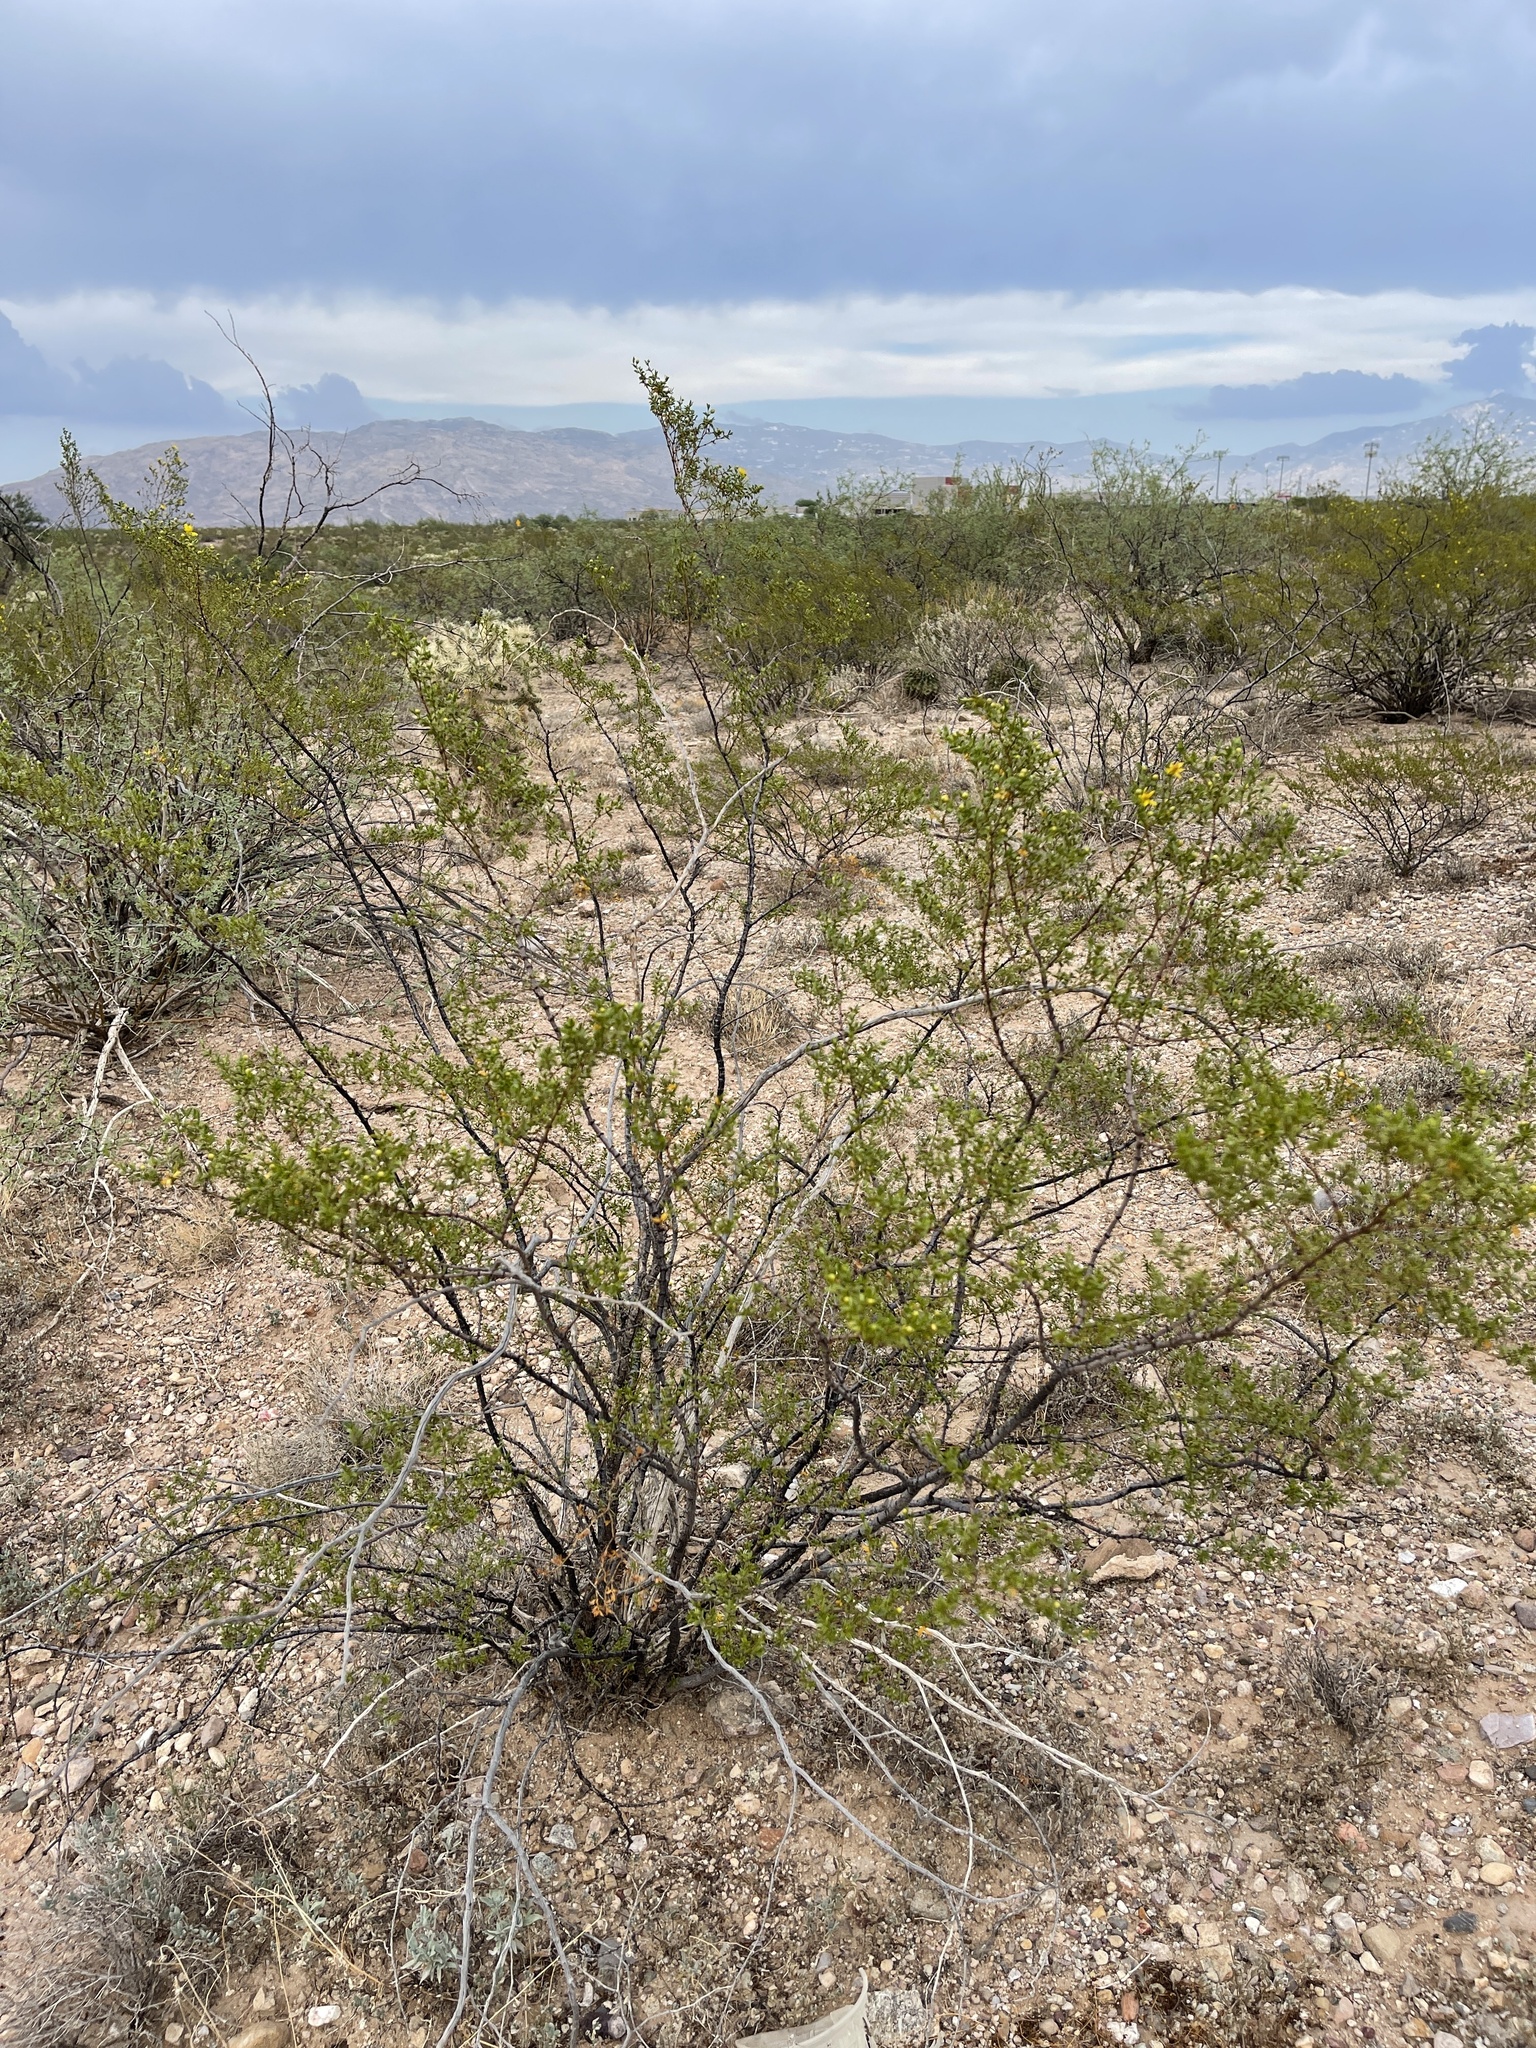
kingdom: Plantae
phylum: Tracheophyta
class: Magnoliopsida
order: Zygophyllales
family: Zygophyllaceae
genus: Larrea
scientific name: Larrea tridentata
